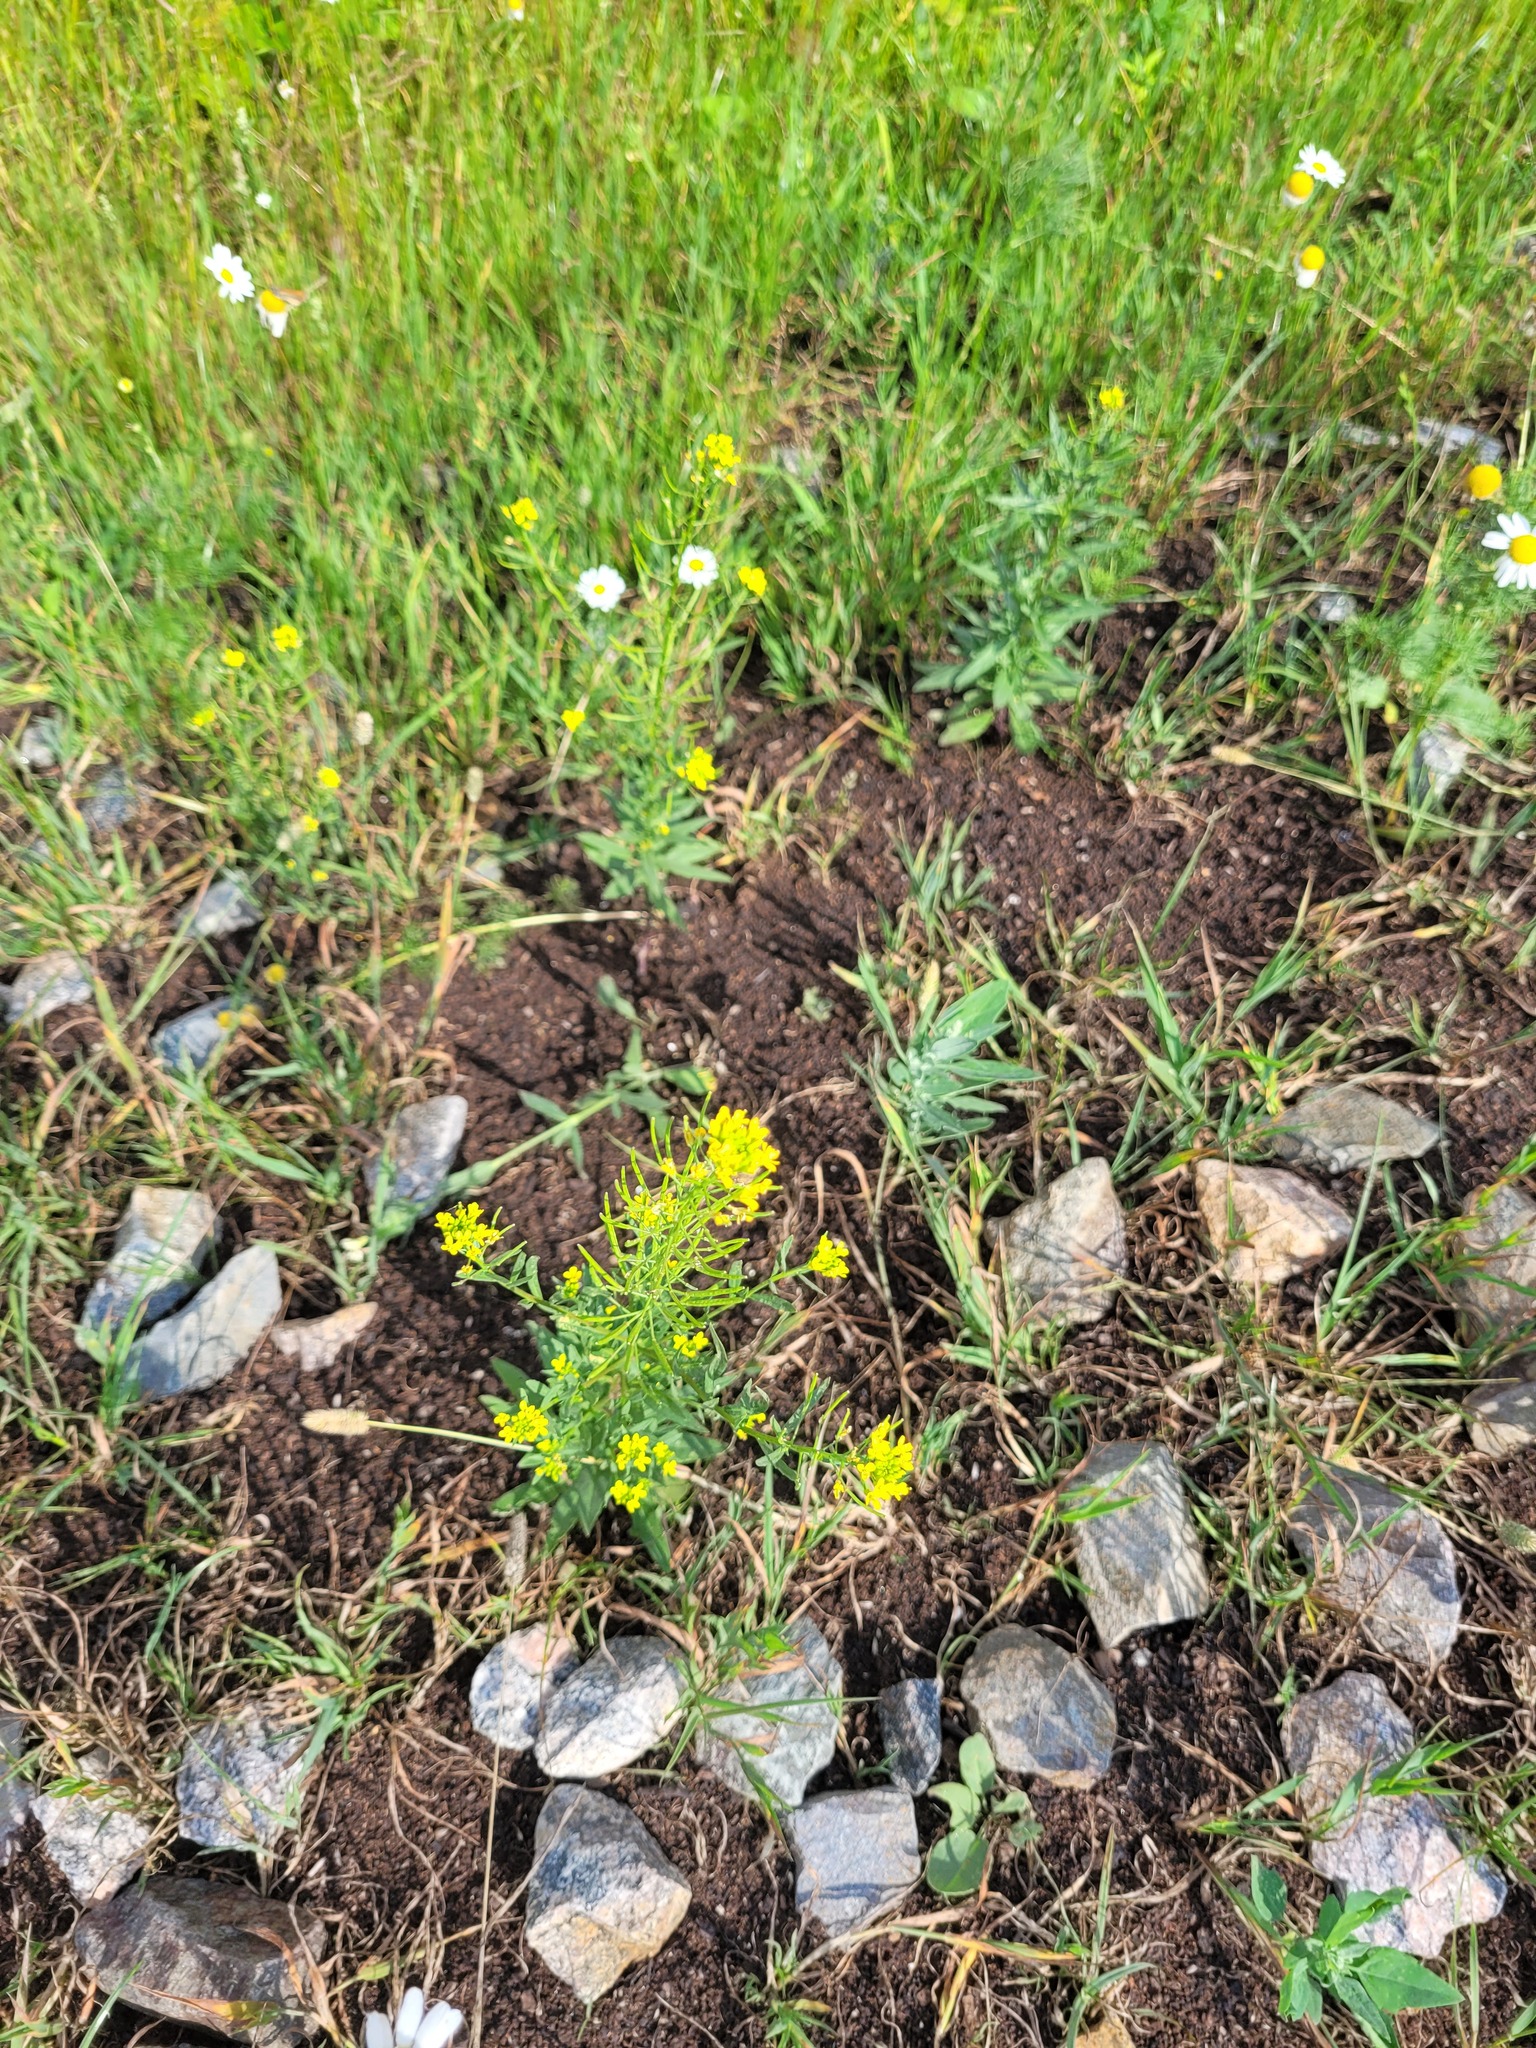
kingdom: Plantae
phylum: Tracheophyta
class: Magnoliopsida
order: Brassicales
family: Brassicaceae
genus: Erysimum
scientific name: Erysimum cheiranthoides
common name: Treacle mustard
